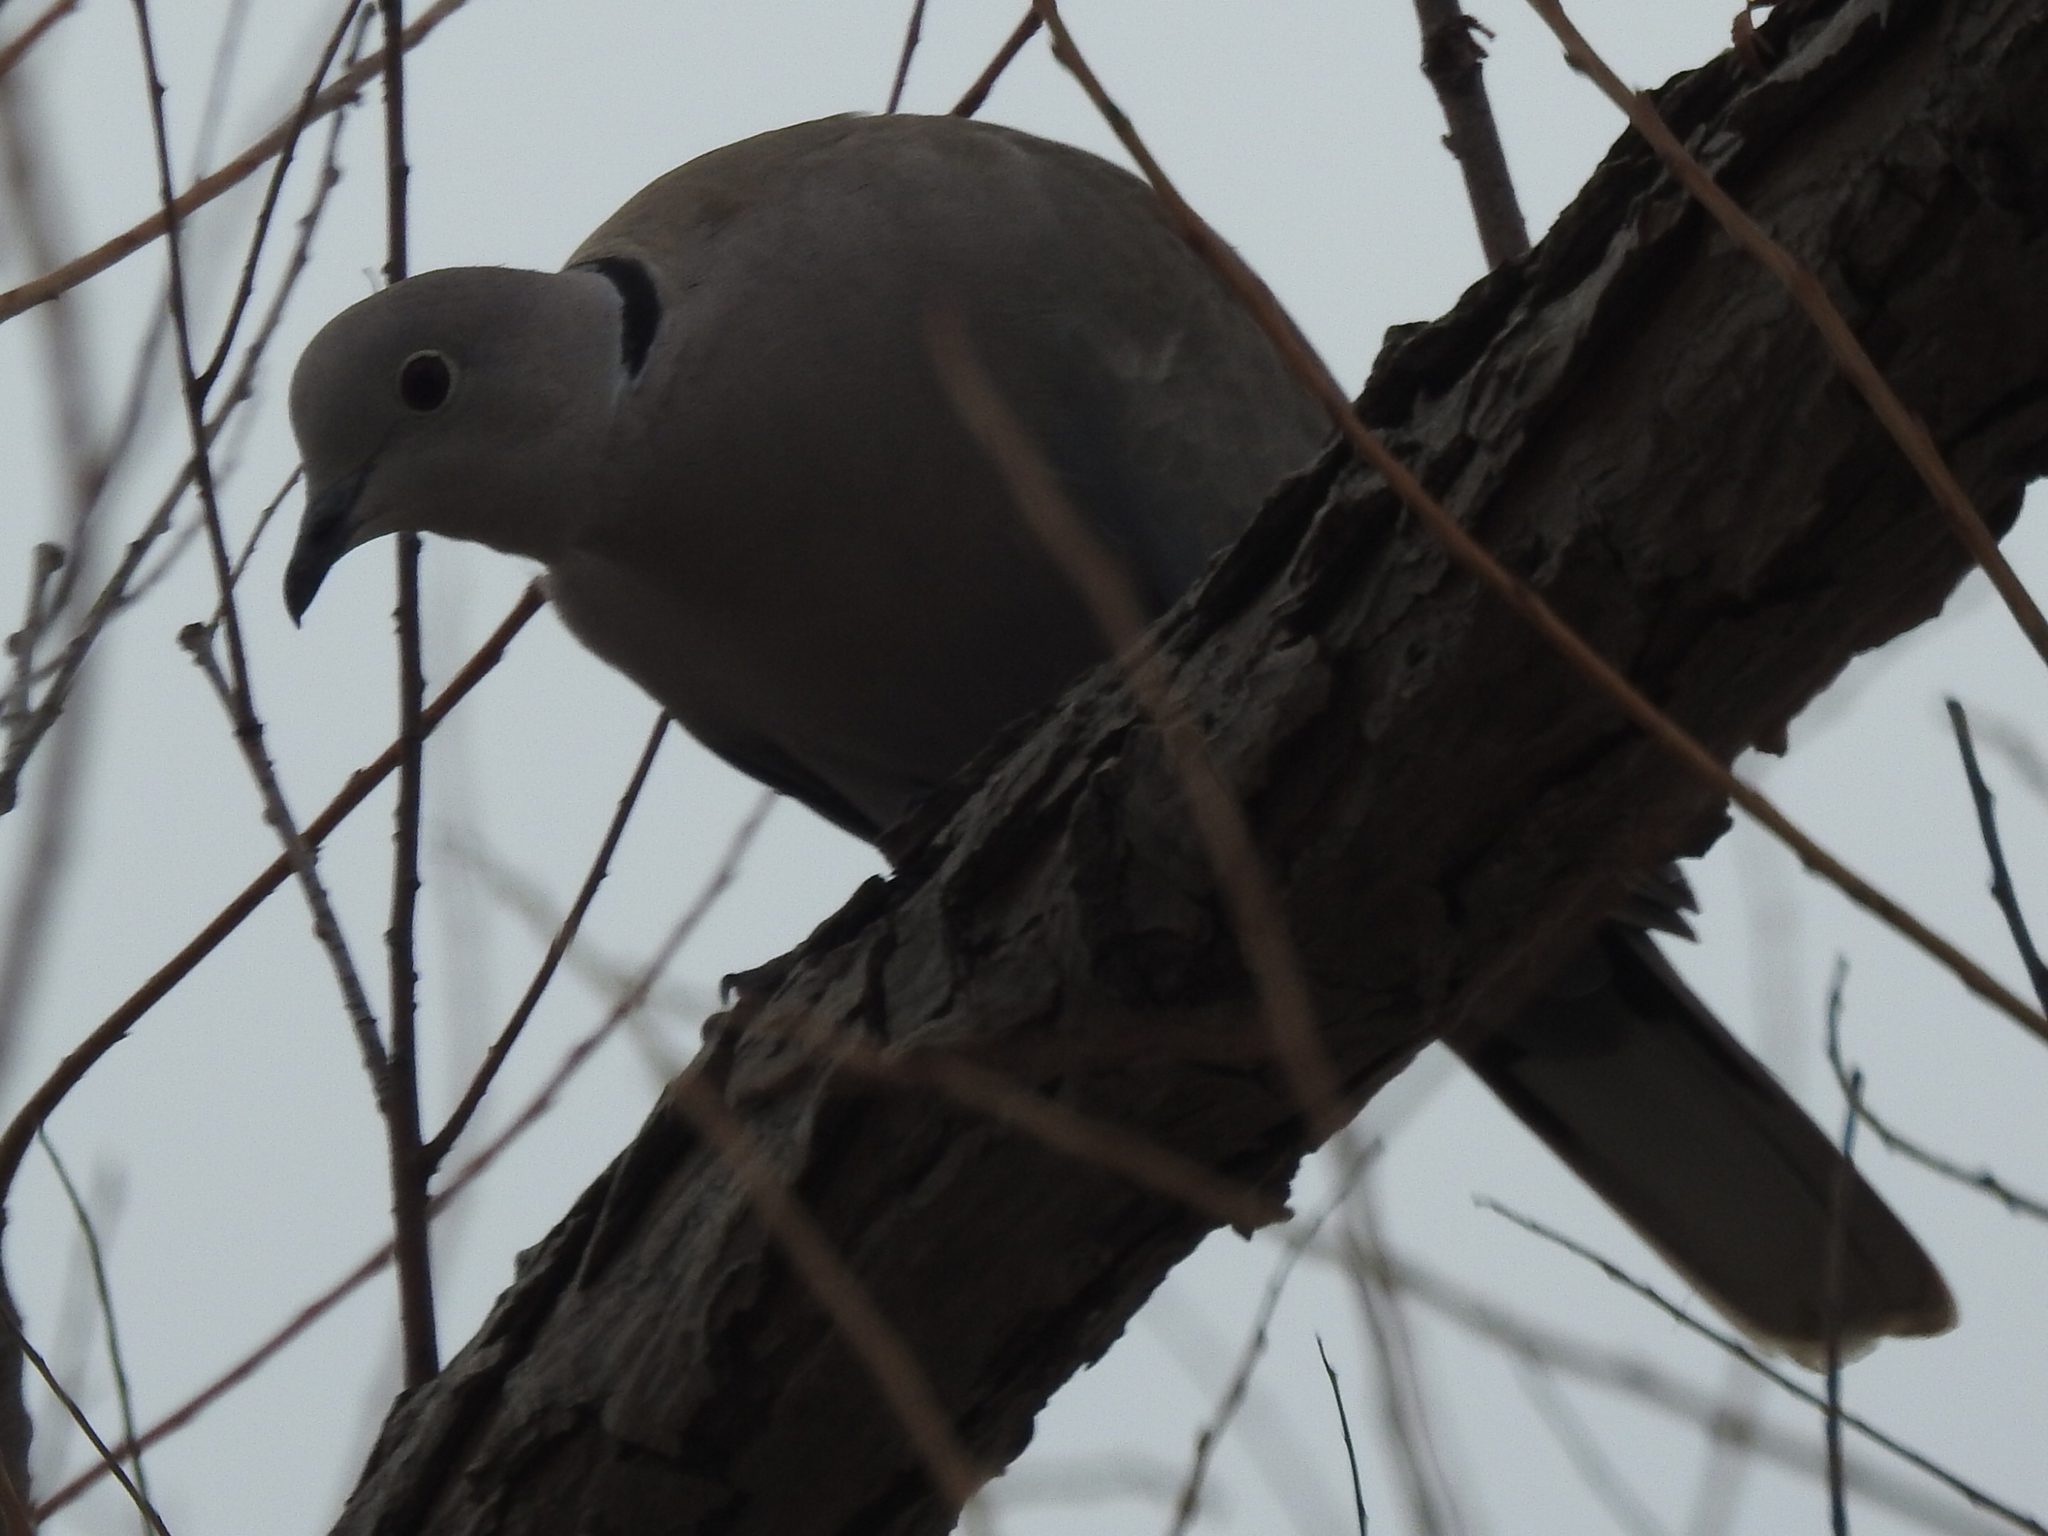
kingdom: Animalia
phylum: Chordata
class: Aves
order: Columbiformes
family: Columbidae
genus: Streptopelia
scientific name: Streptopelia decaocto
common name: Eurasian collared dove
